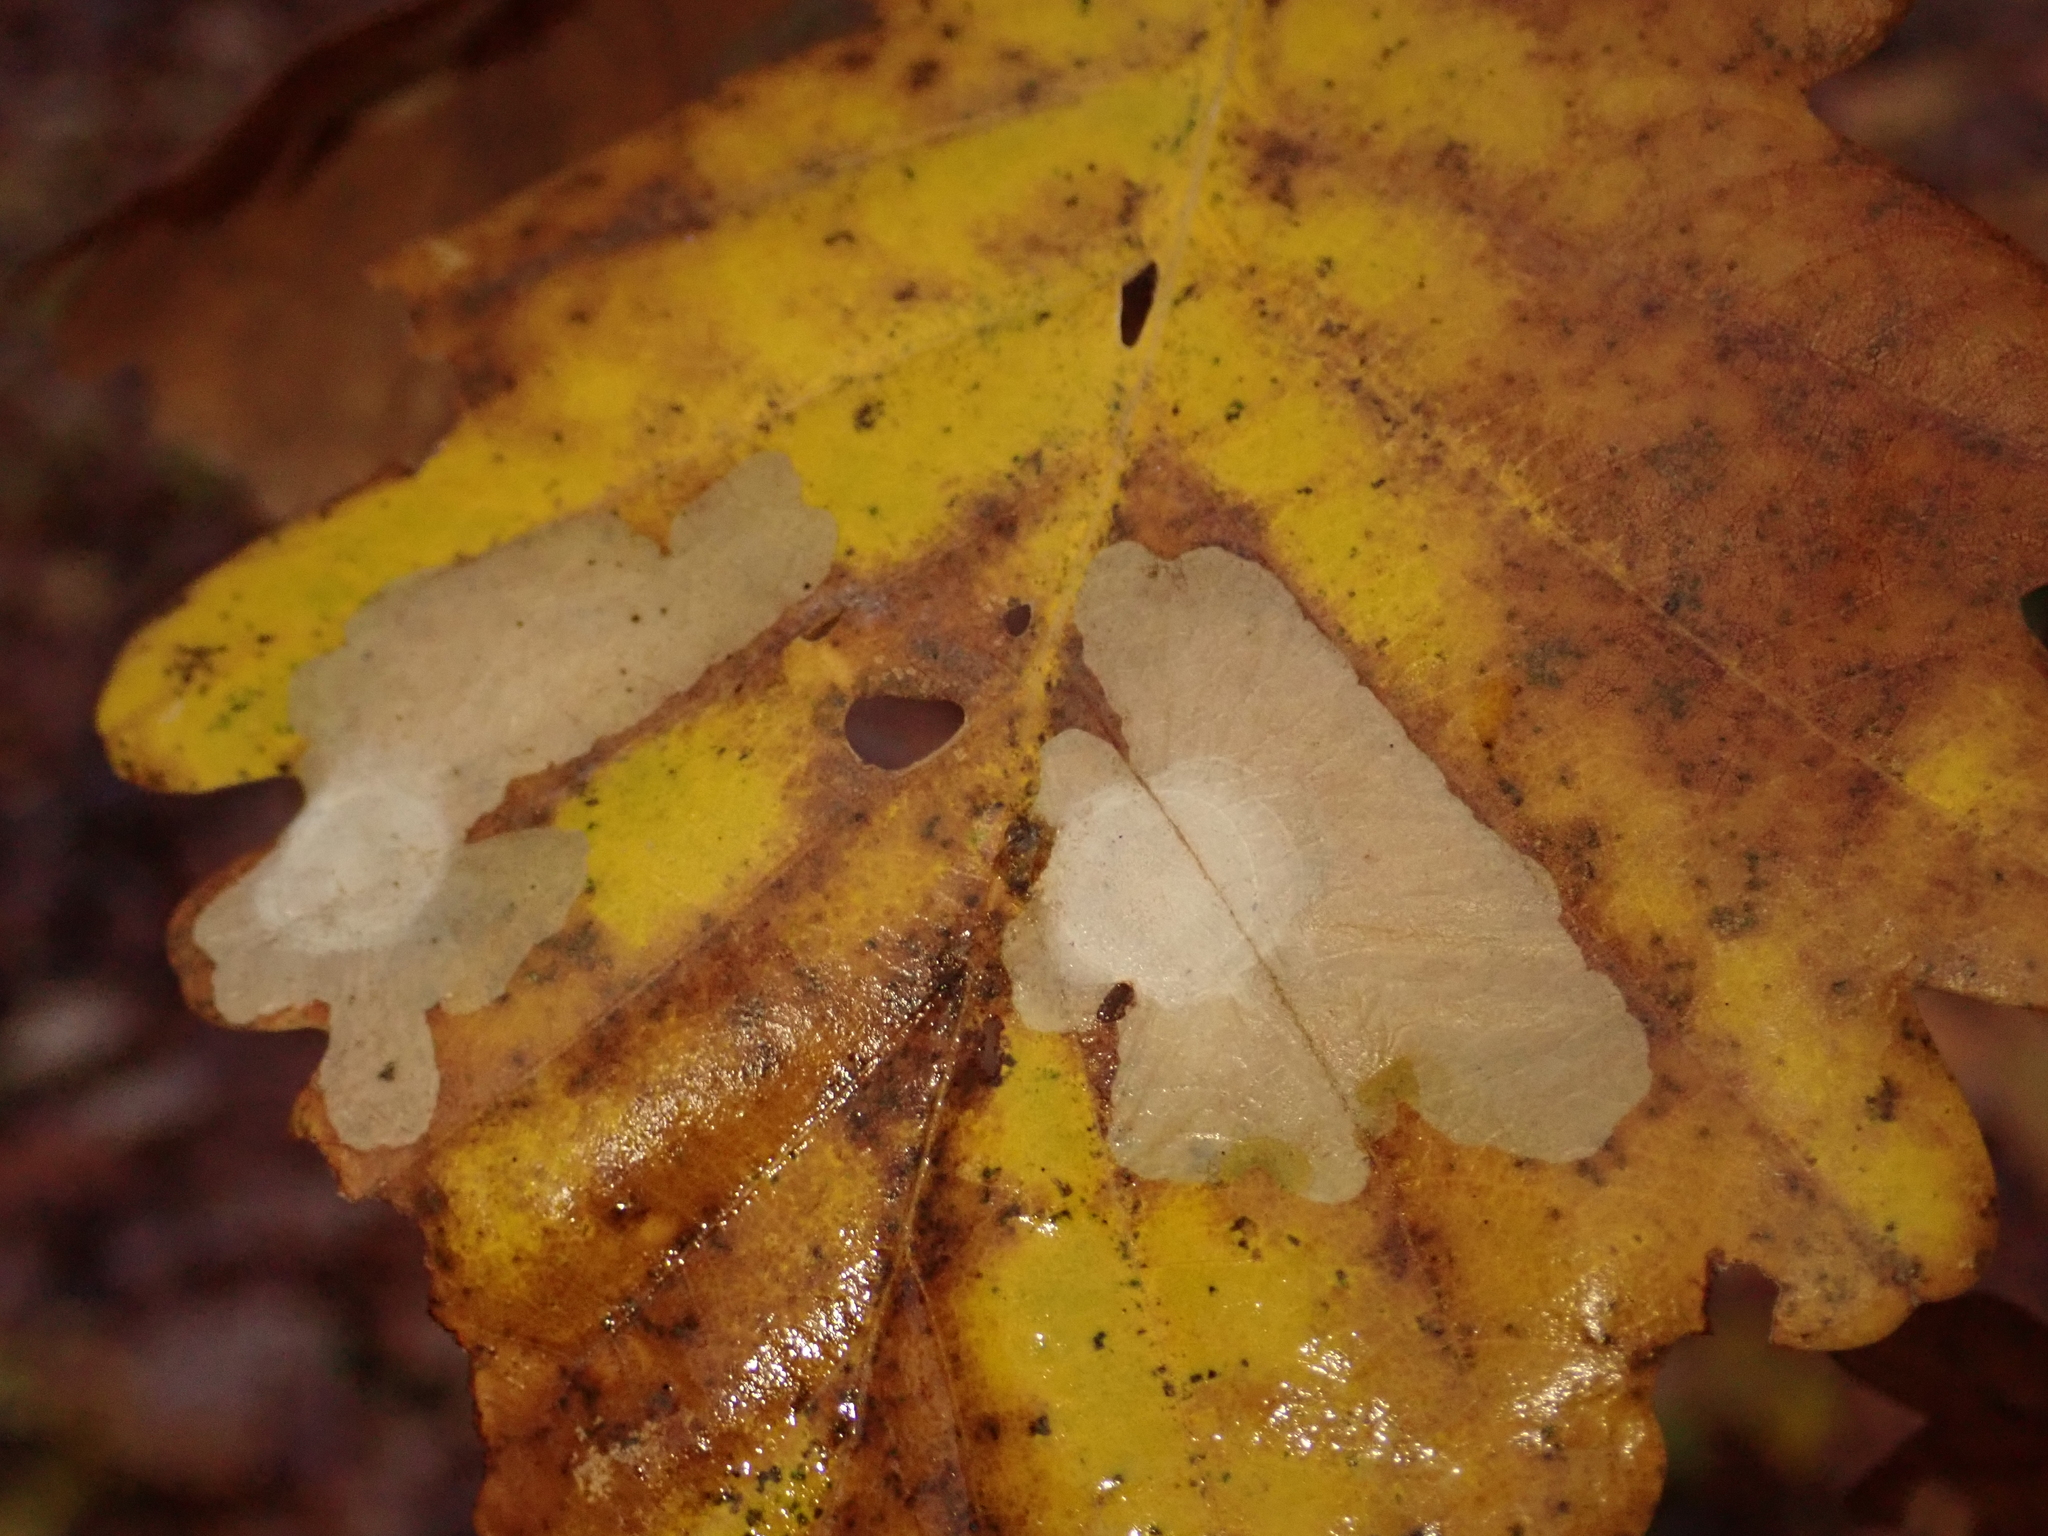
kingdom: Animalia
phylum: Arthropoda
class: Insecta
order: Lepidoptera
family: Tischeriidae
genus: Tischeria
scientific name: Tischeria ekebladella
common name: Oak carl
